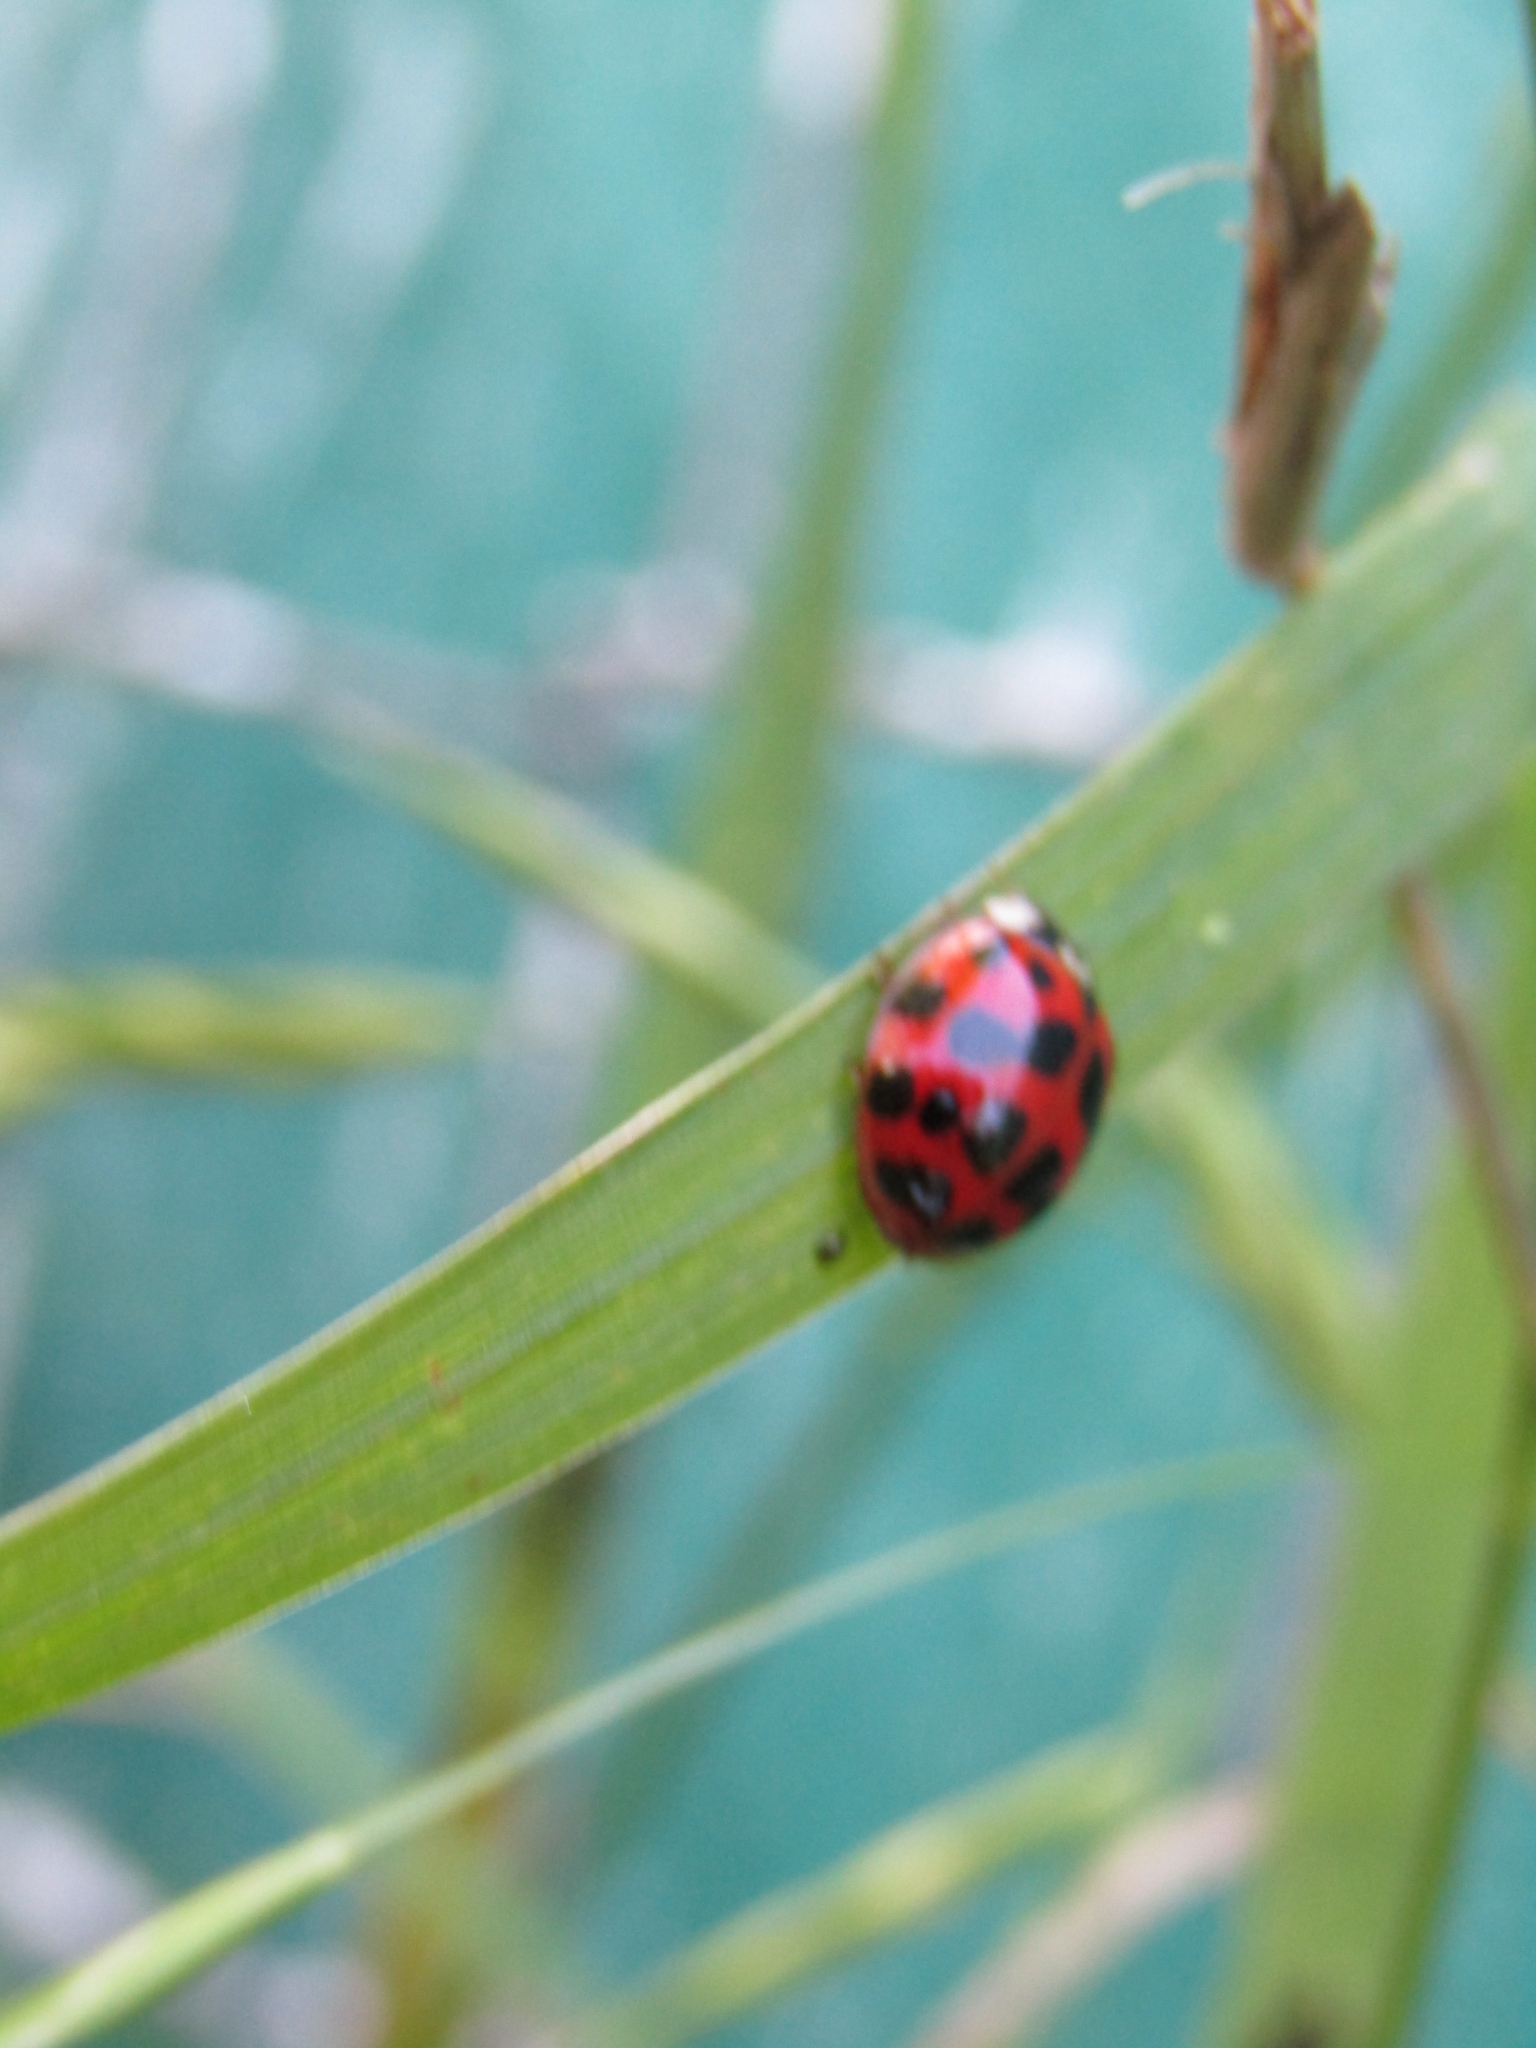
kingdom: Animalia
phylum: Arthropoda
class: Insecta
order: Coleoptera
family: Coccinellidae
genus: Harmonia
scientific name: Harmonia axyridis
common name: Harlequin ladybird
